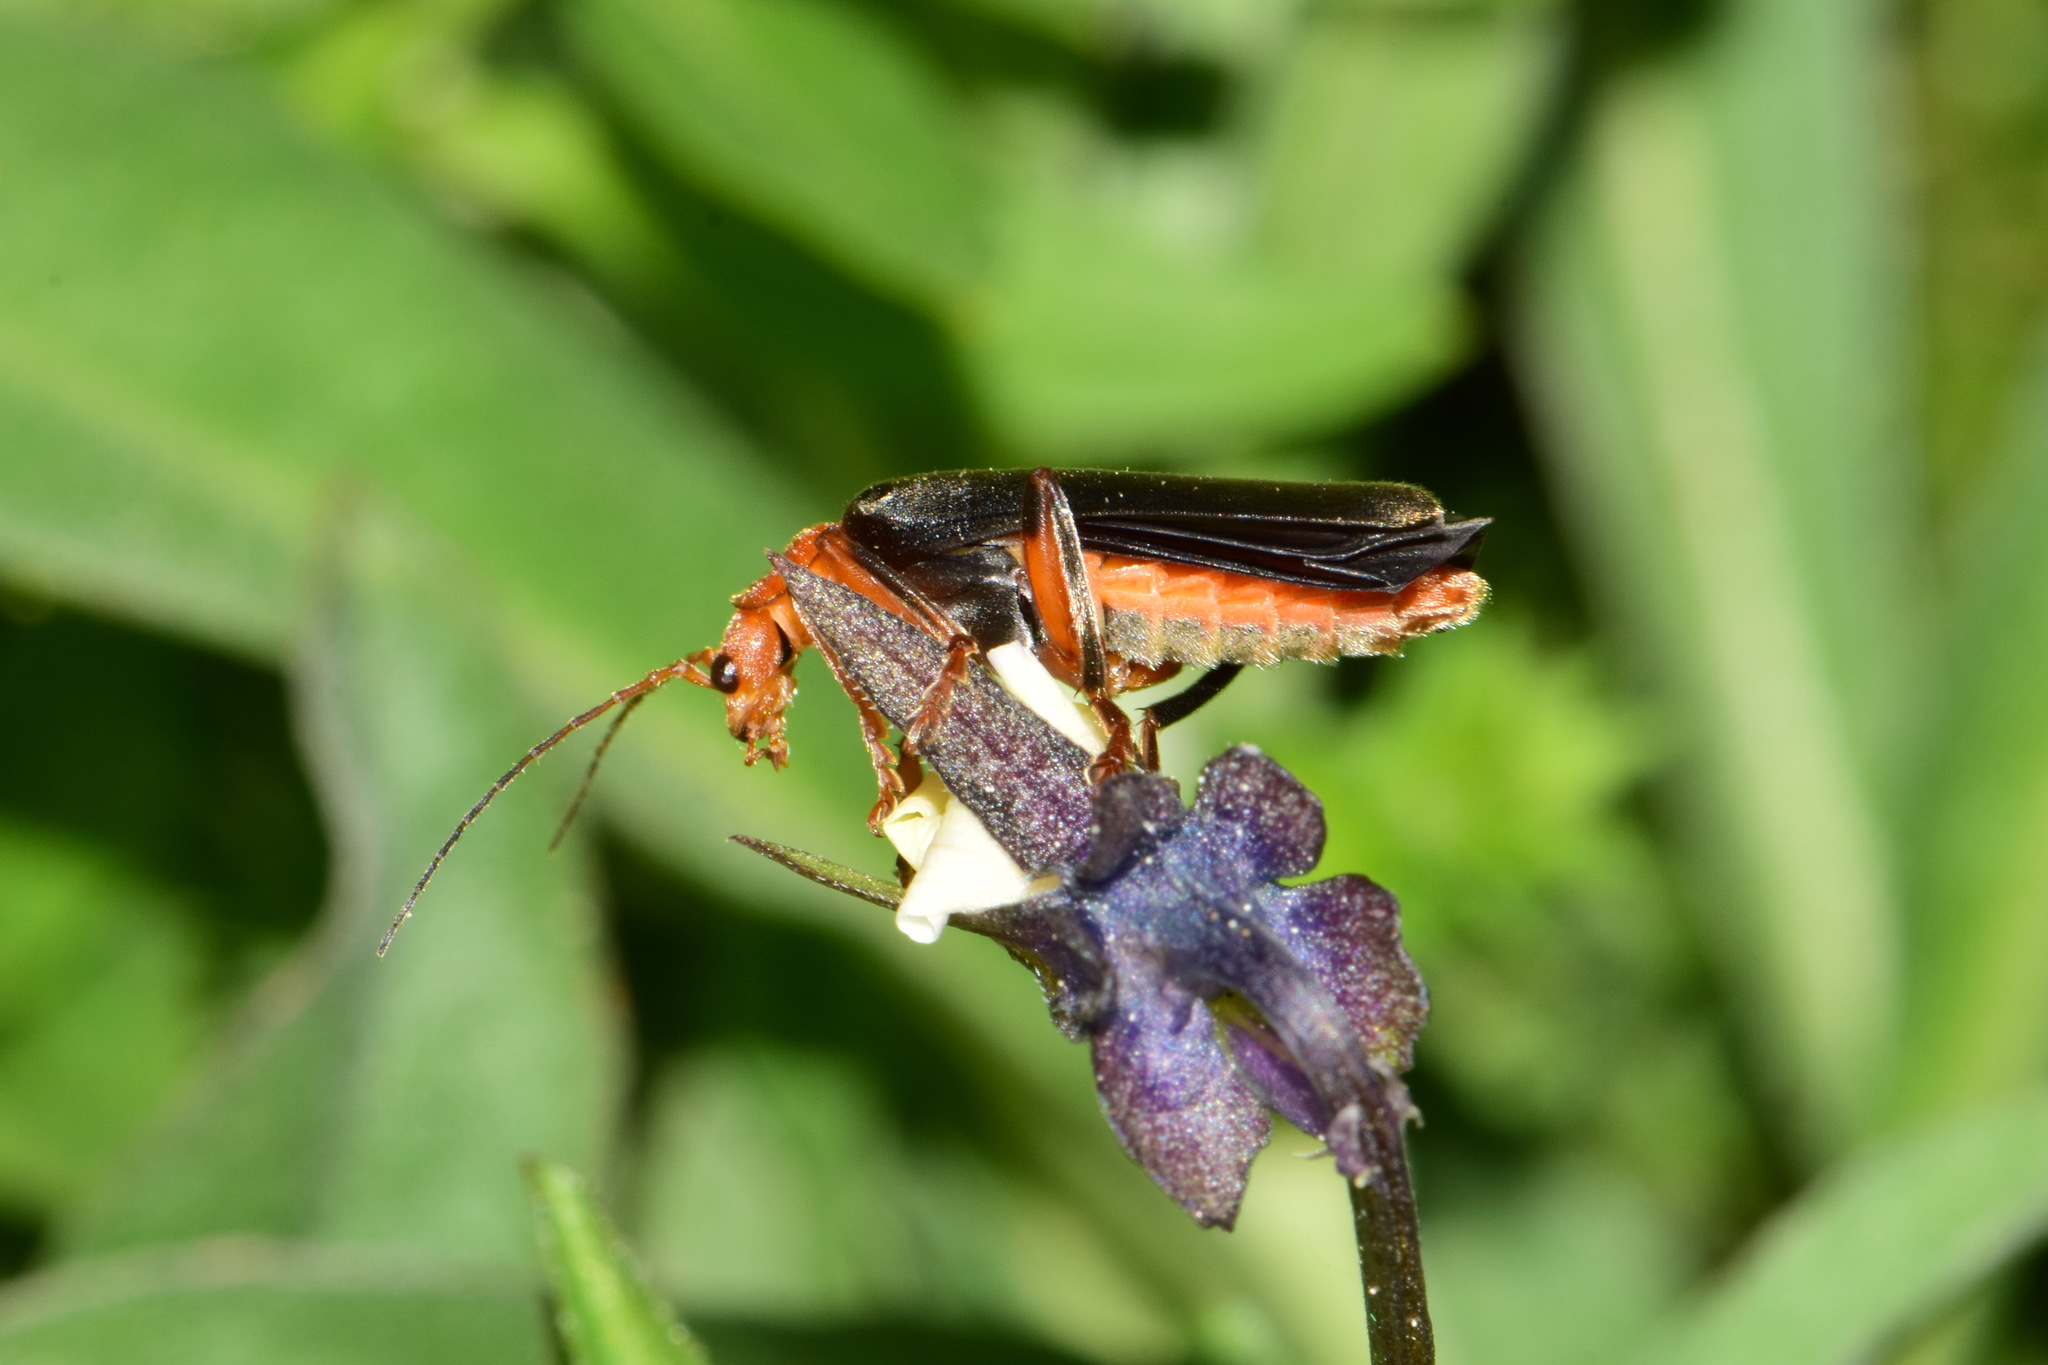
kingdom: Animalia
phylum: Arthropoda
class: Insecta
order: Coleoptera
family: Cantharidae
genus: Cantharis
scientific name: Cantharis livida
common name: Livid soldier beetle
